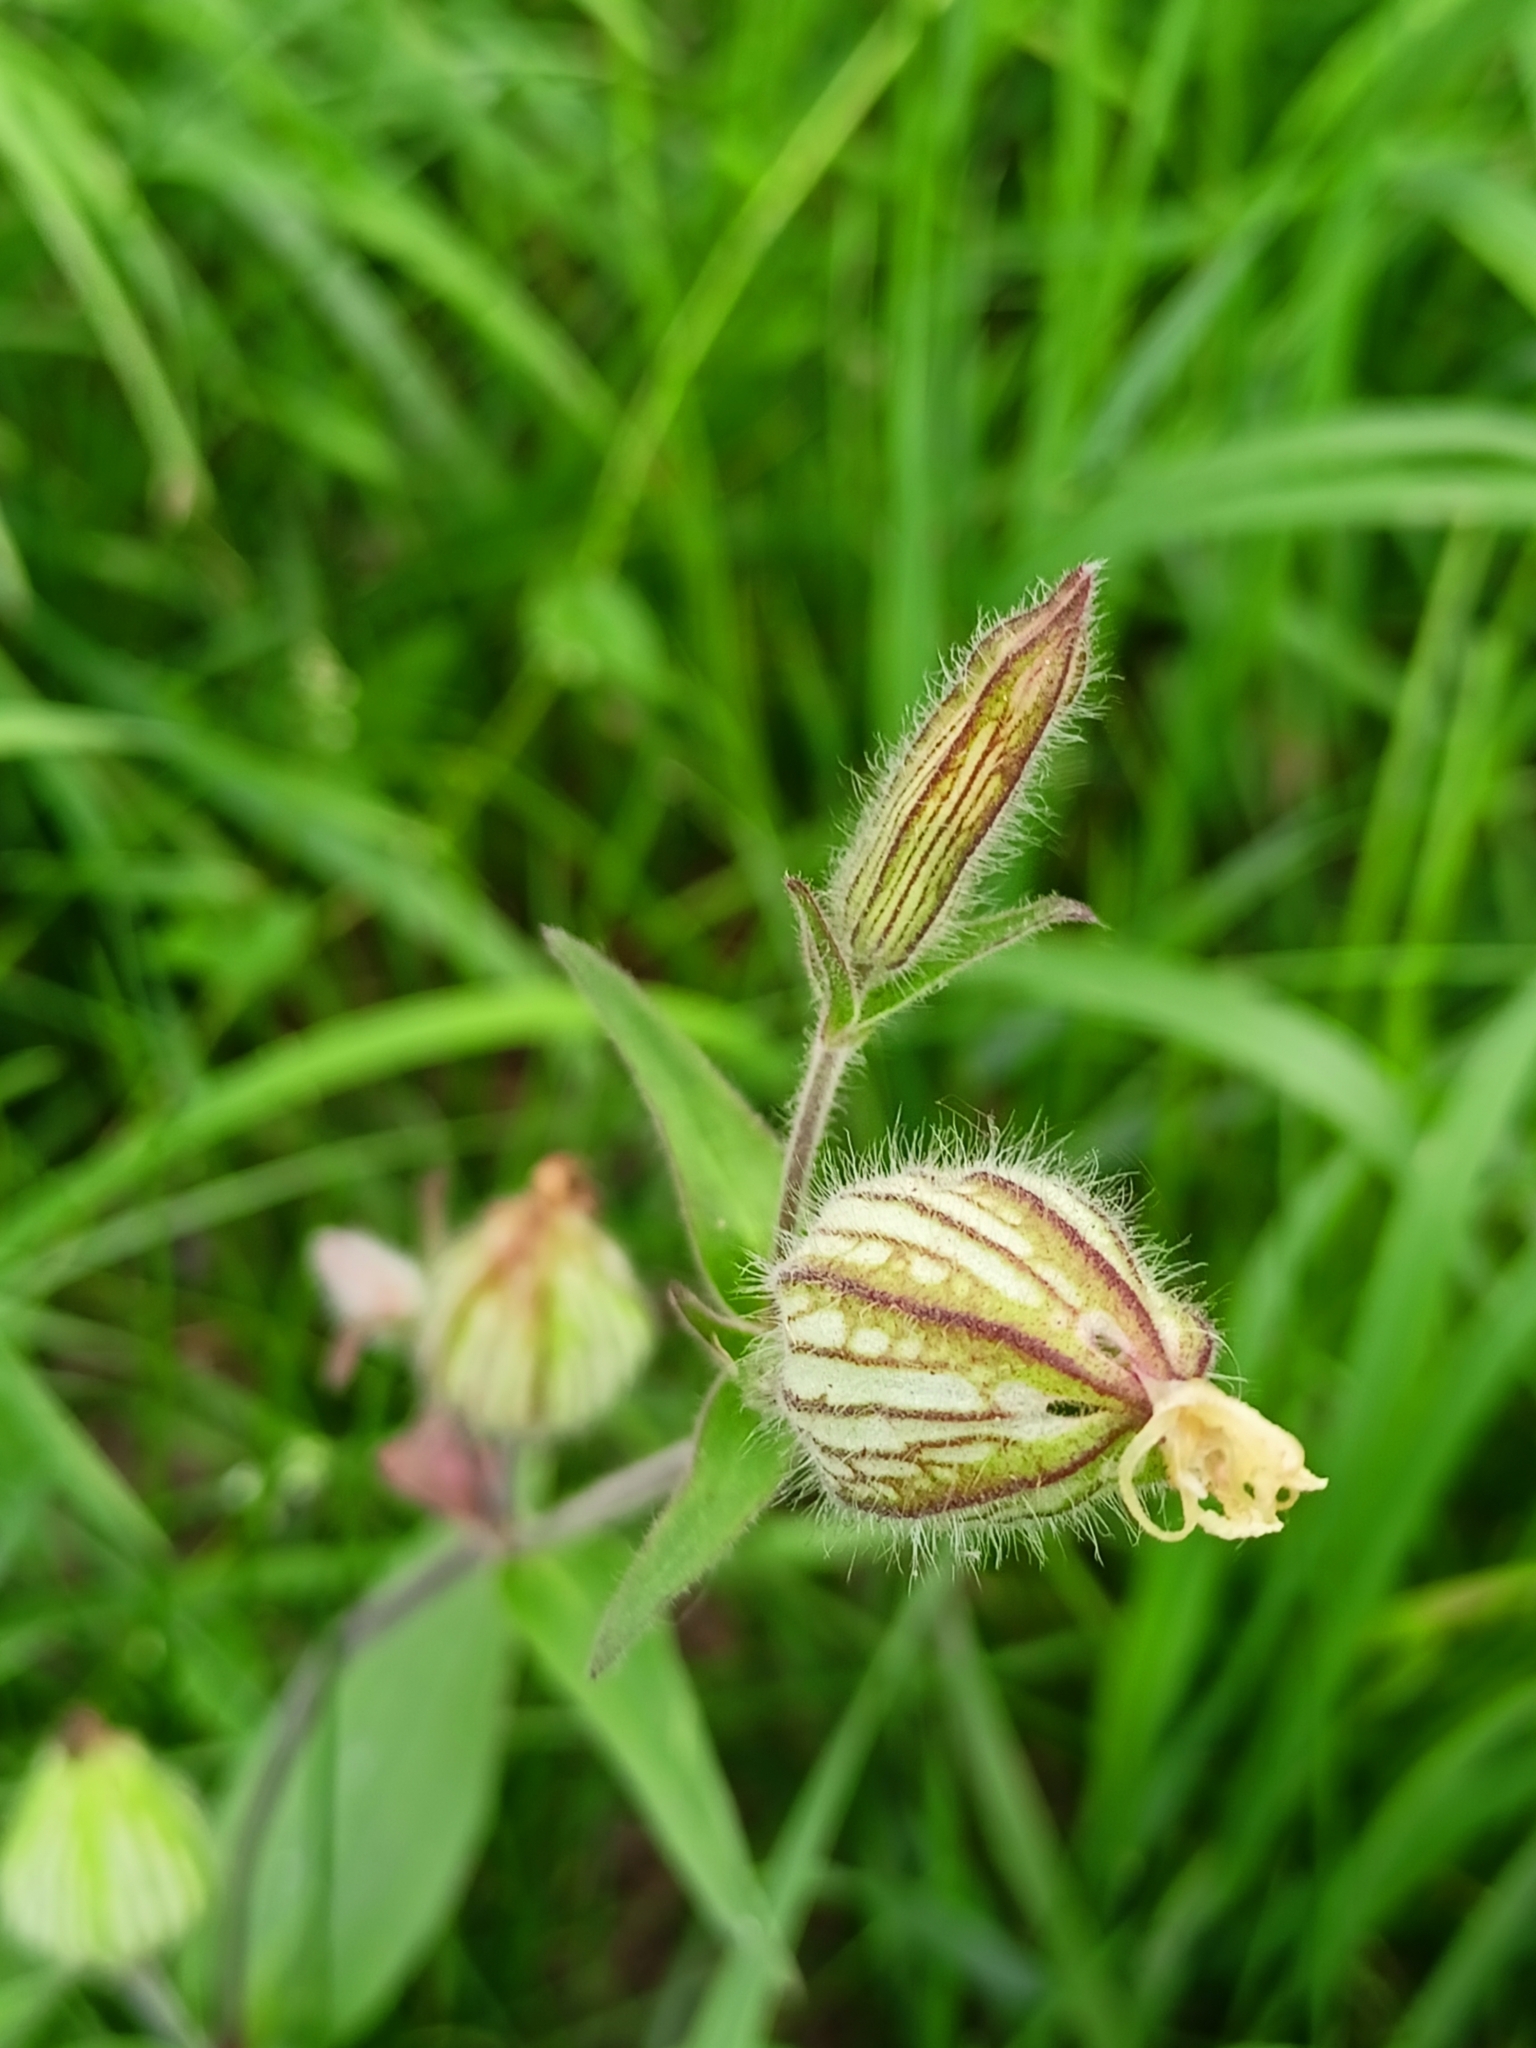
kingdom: Plantae
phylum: Tracheophyta
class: Magnoliopsida
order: Caryophyllales
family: Caryophyllaceae
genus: Silene
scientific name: Silene vulgaris
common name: Bladder campion
